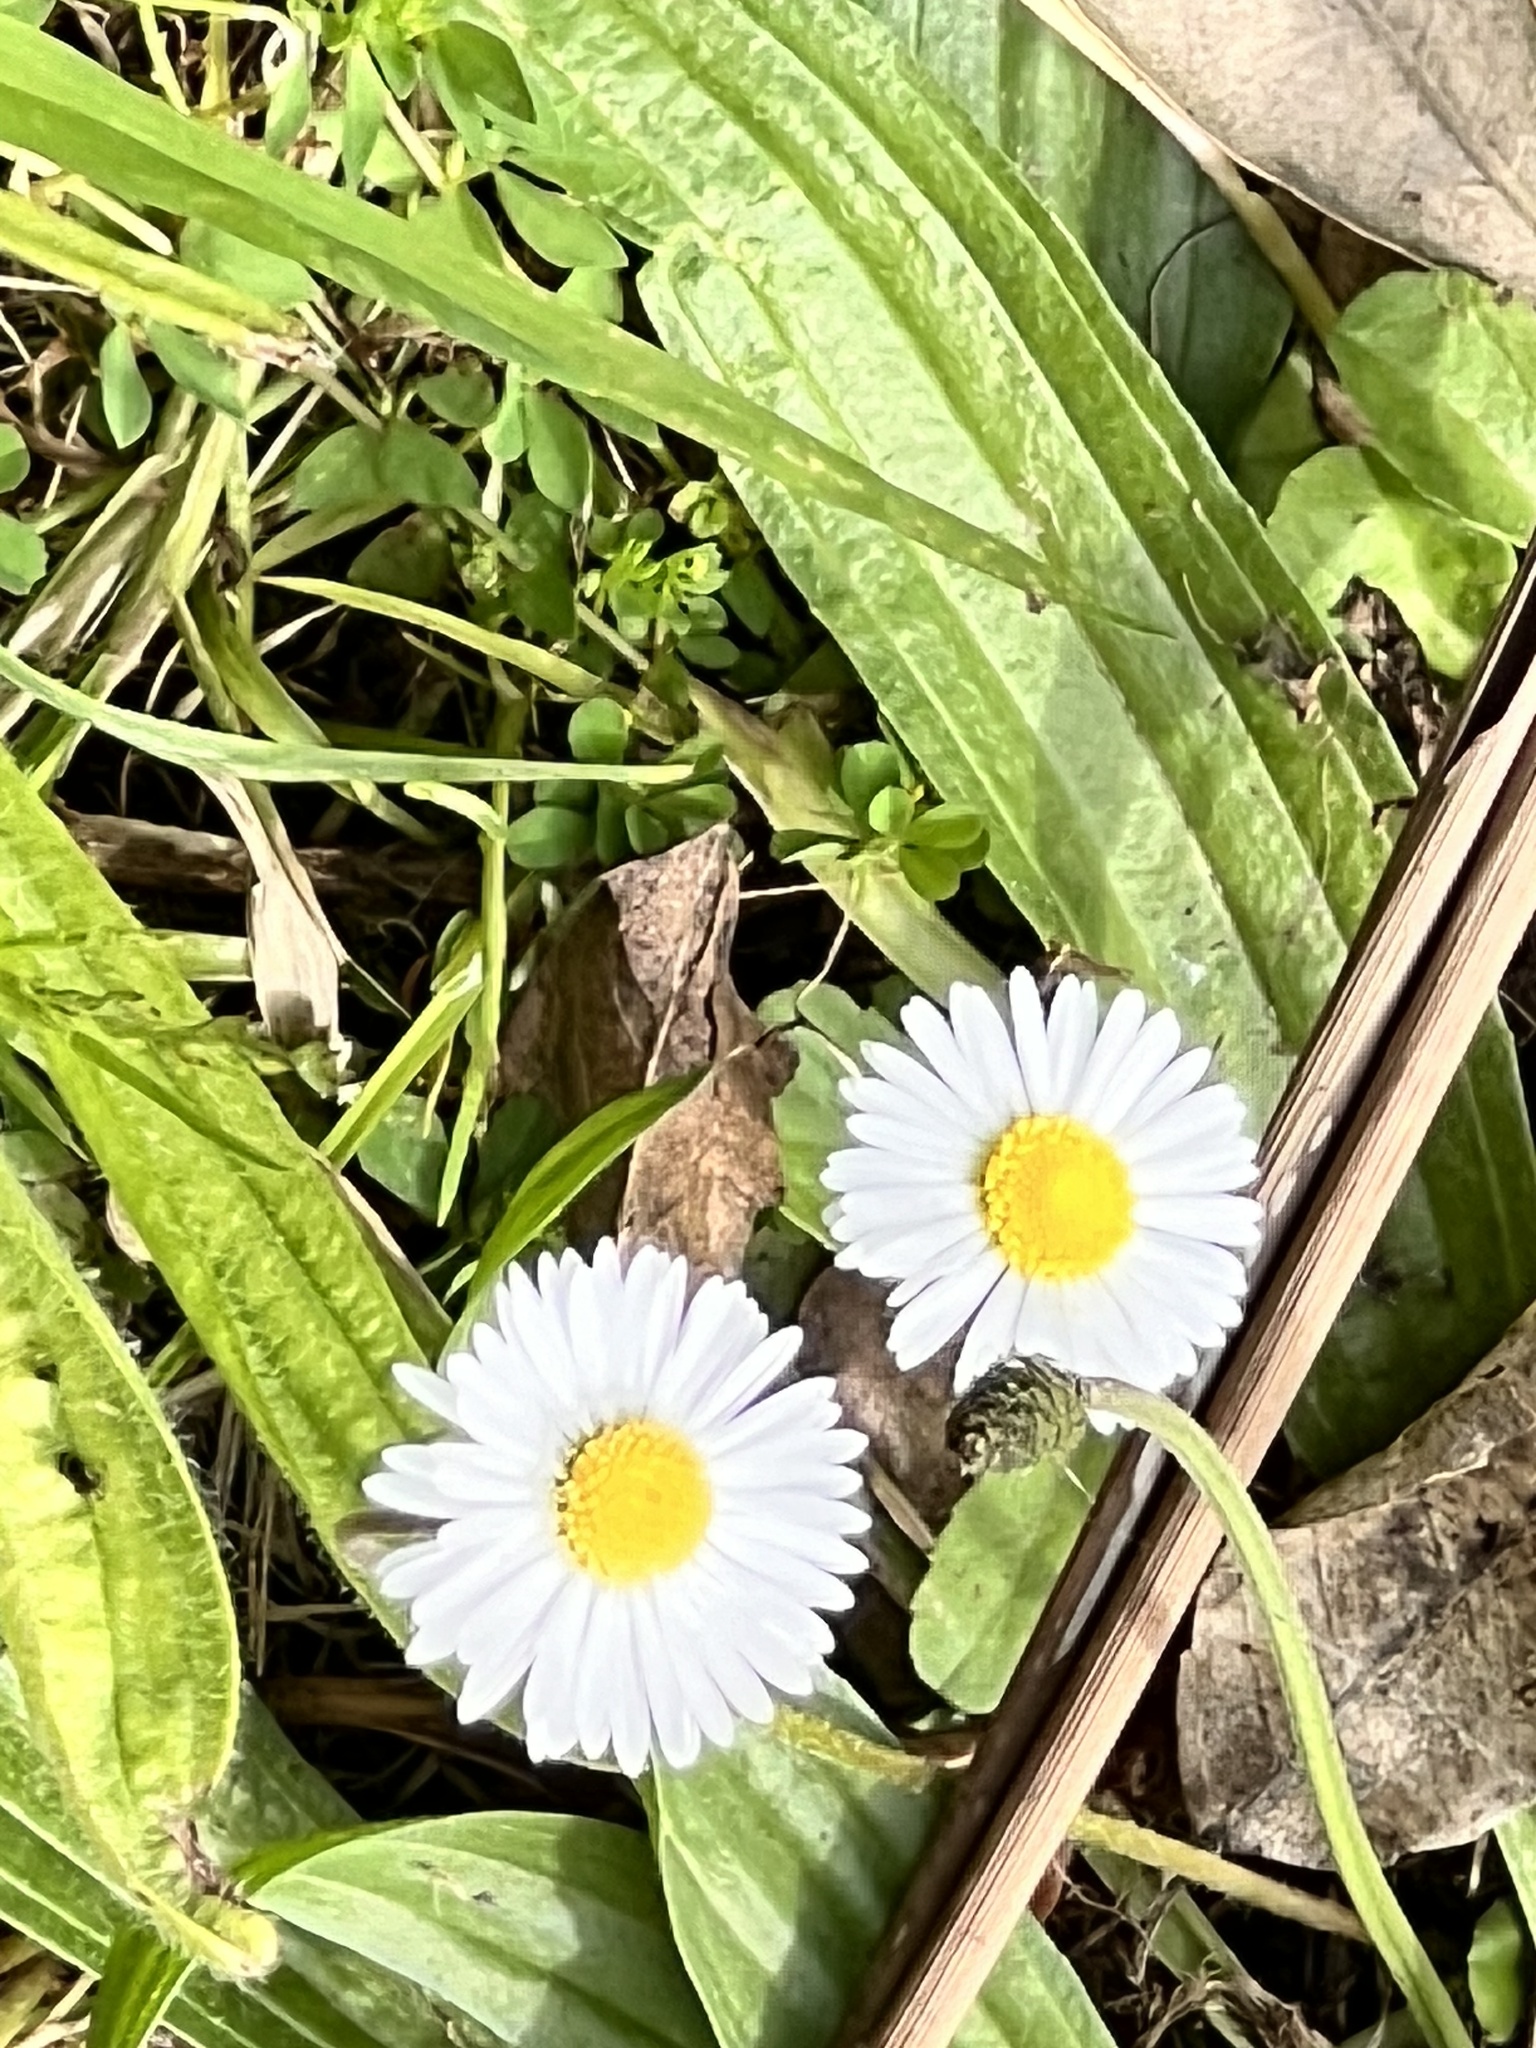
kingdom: Plantae
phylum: Tracheophyta
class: Magnoliopsida
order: Asterales
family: Asteraceae
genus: Bellis
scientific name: Bellis perennis
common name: Lawndaisy
